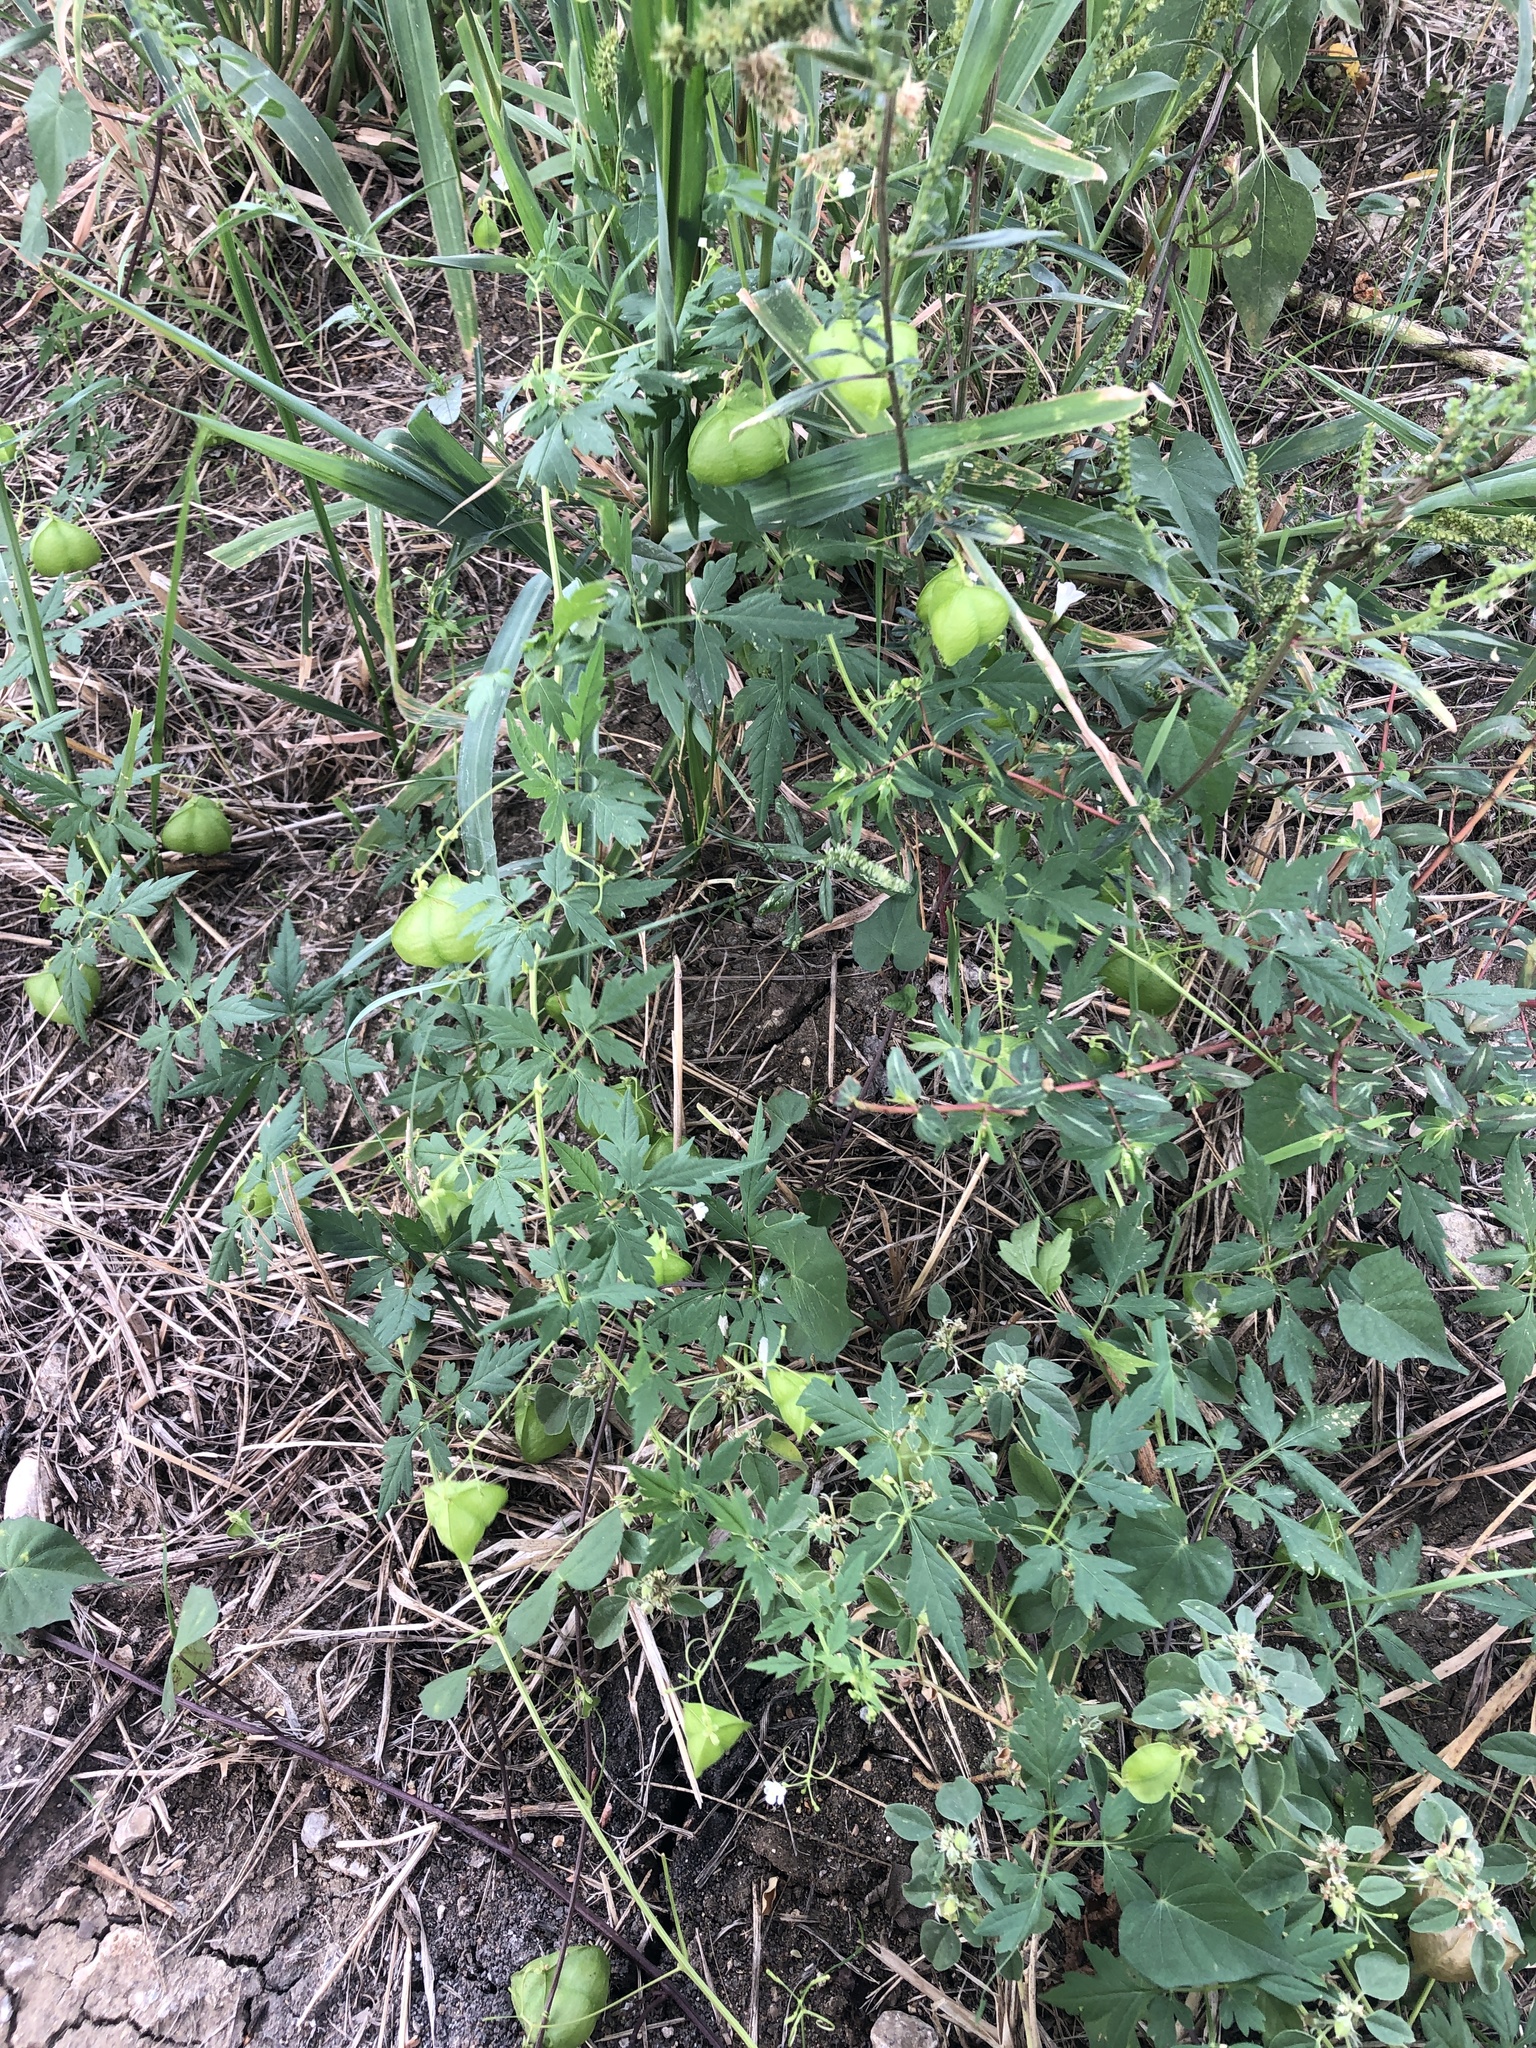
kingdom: Plantae
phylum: Tracheophyta
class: Magnoliopsida
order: Sapindales
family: Sapindaceae
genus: Cardiospermum
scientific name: Cardiospermum halicacabum
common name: Balloon vine
